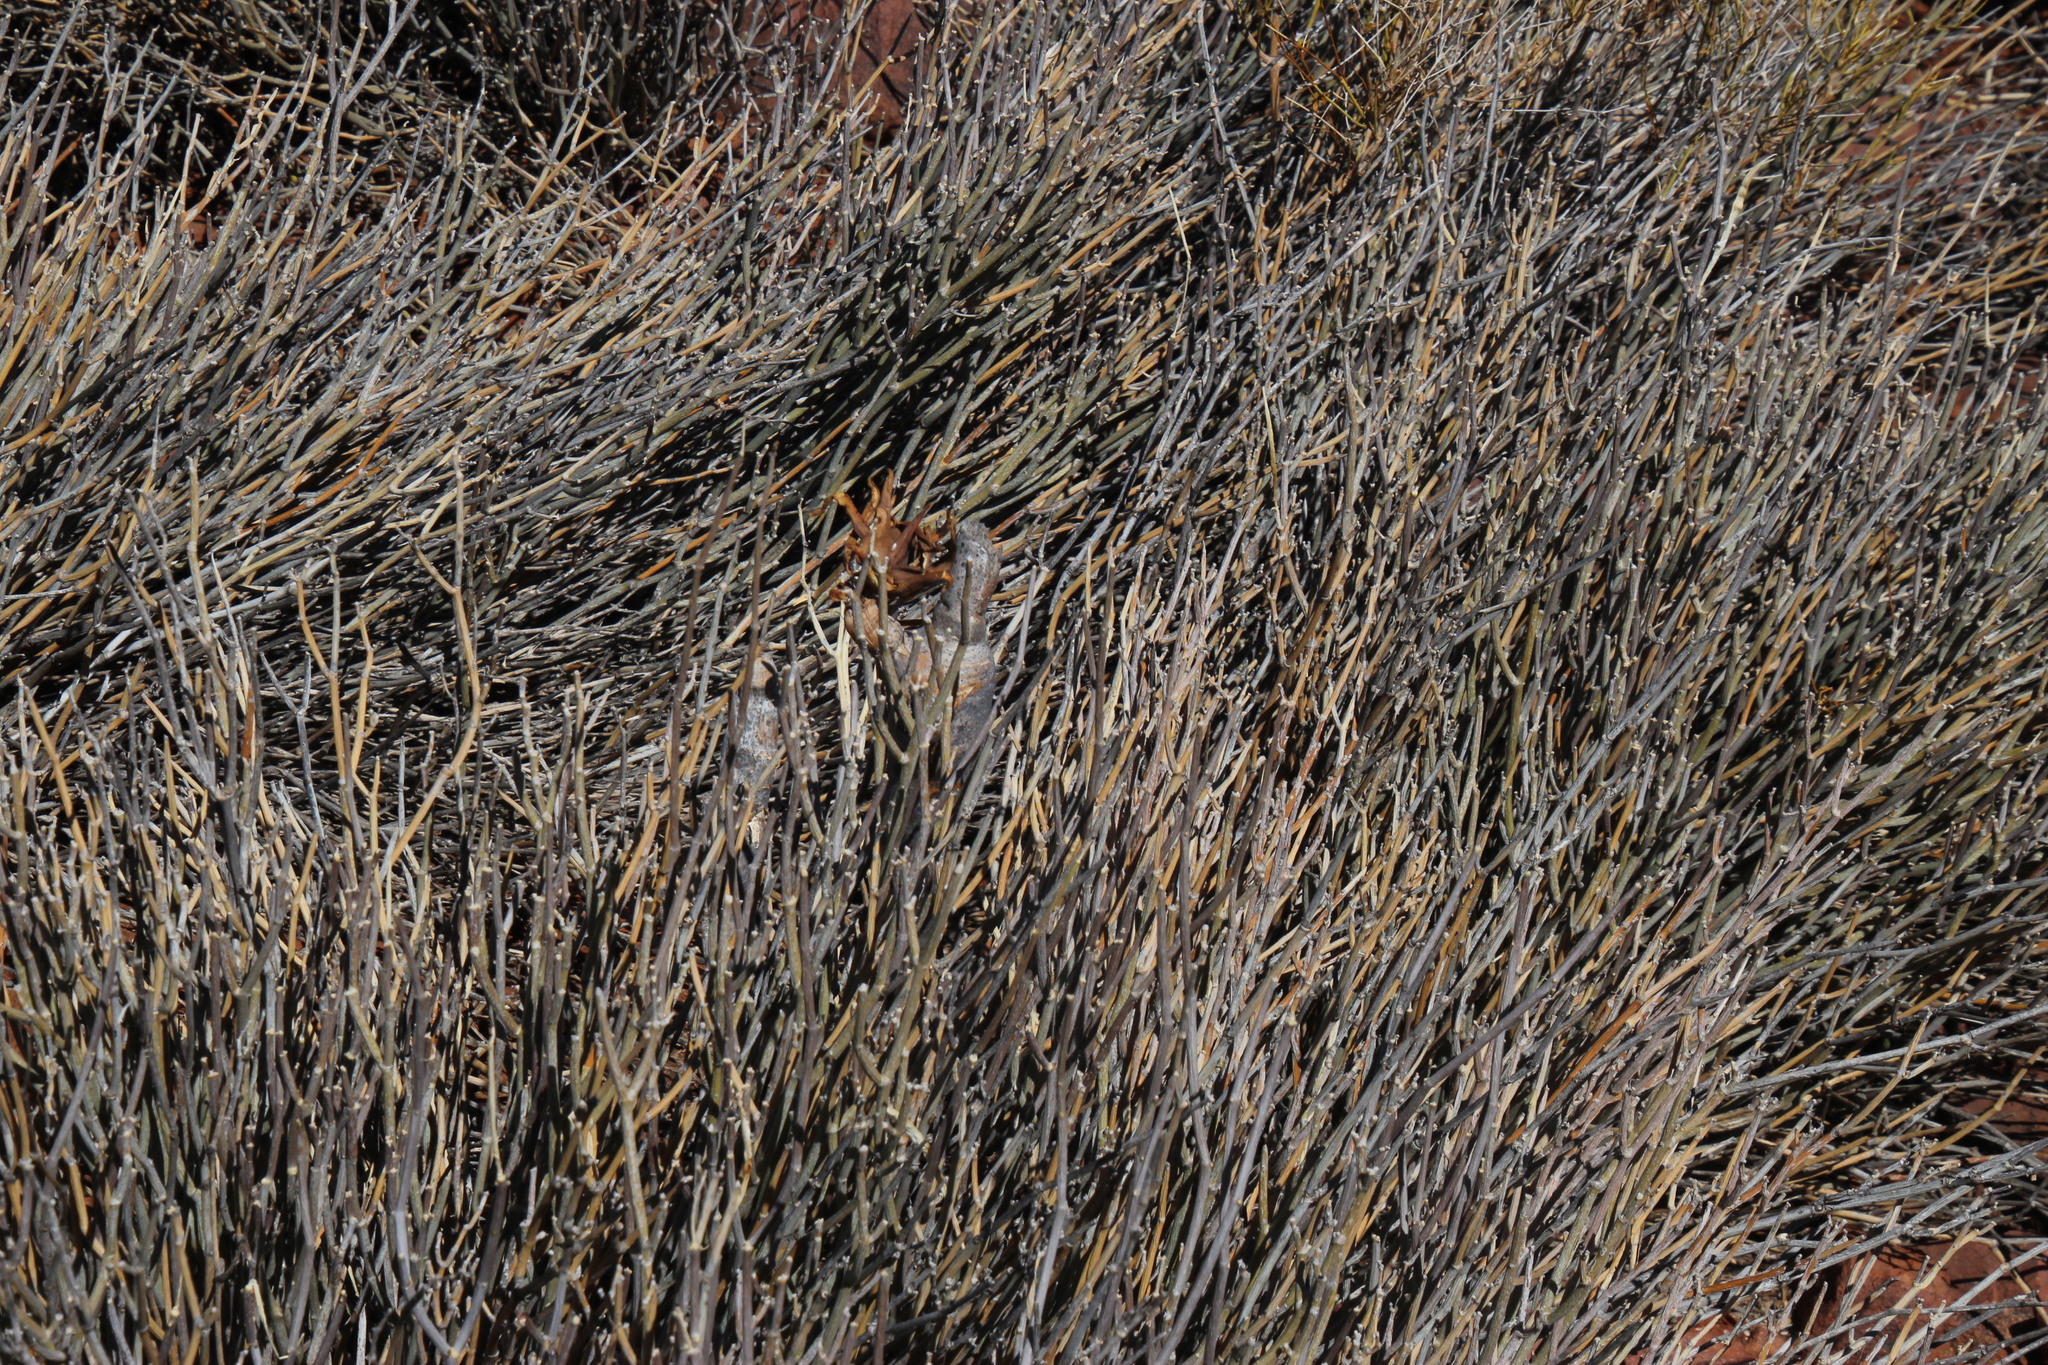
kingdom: Plantae
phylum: Tracheophyta
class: Magnoliopsida
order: Gentianales
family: Apocynaceae
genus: Cynanchum
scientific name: Cynanchum viminale
